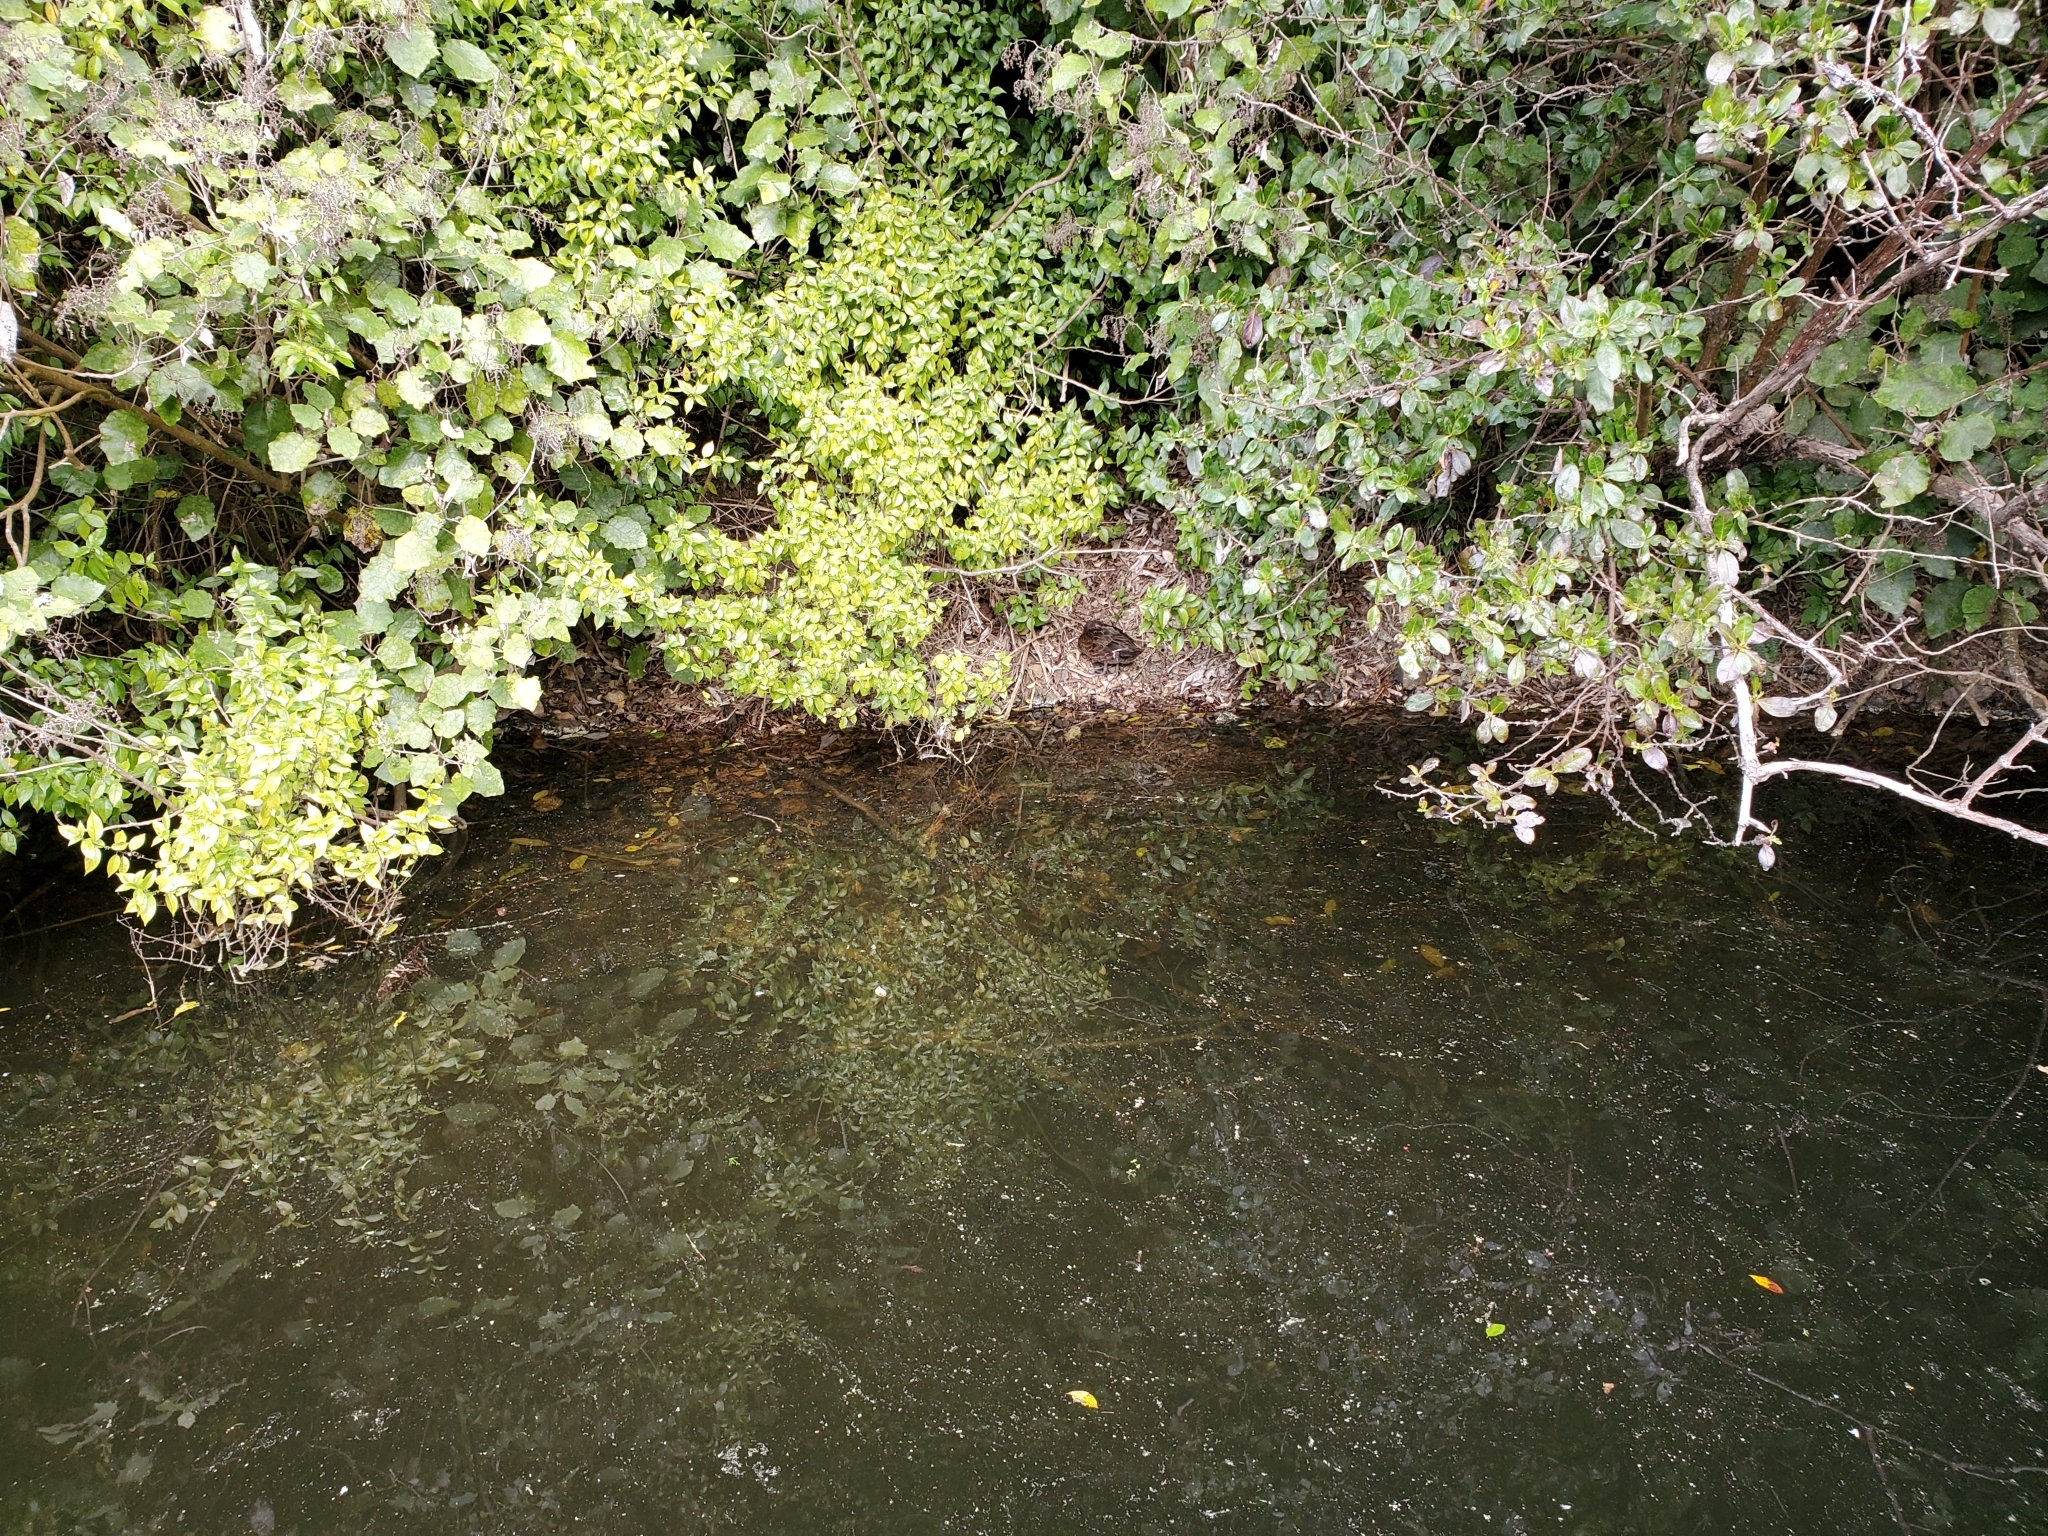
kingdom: Animalia
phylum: Chordata
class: Aves
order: Anseriformes
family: Anatidae
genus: Anas
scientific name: Anas chlorotis
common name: Brown teal
